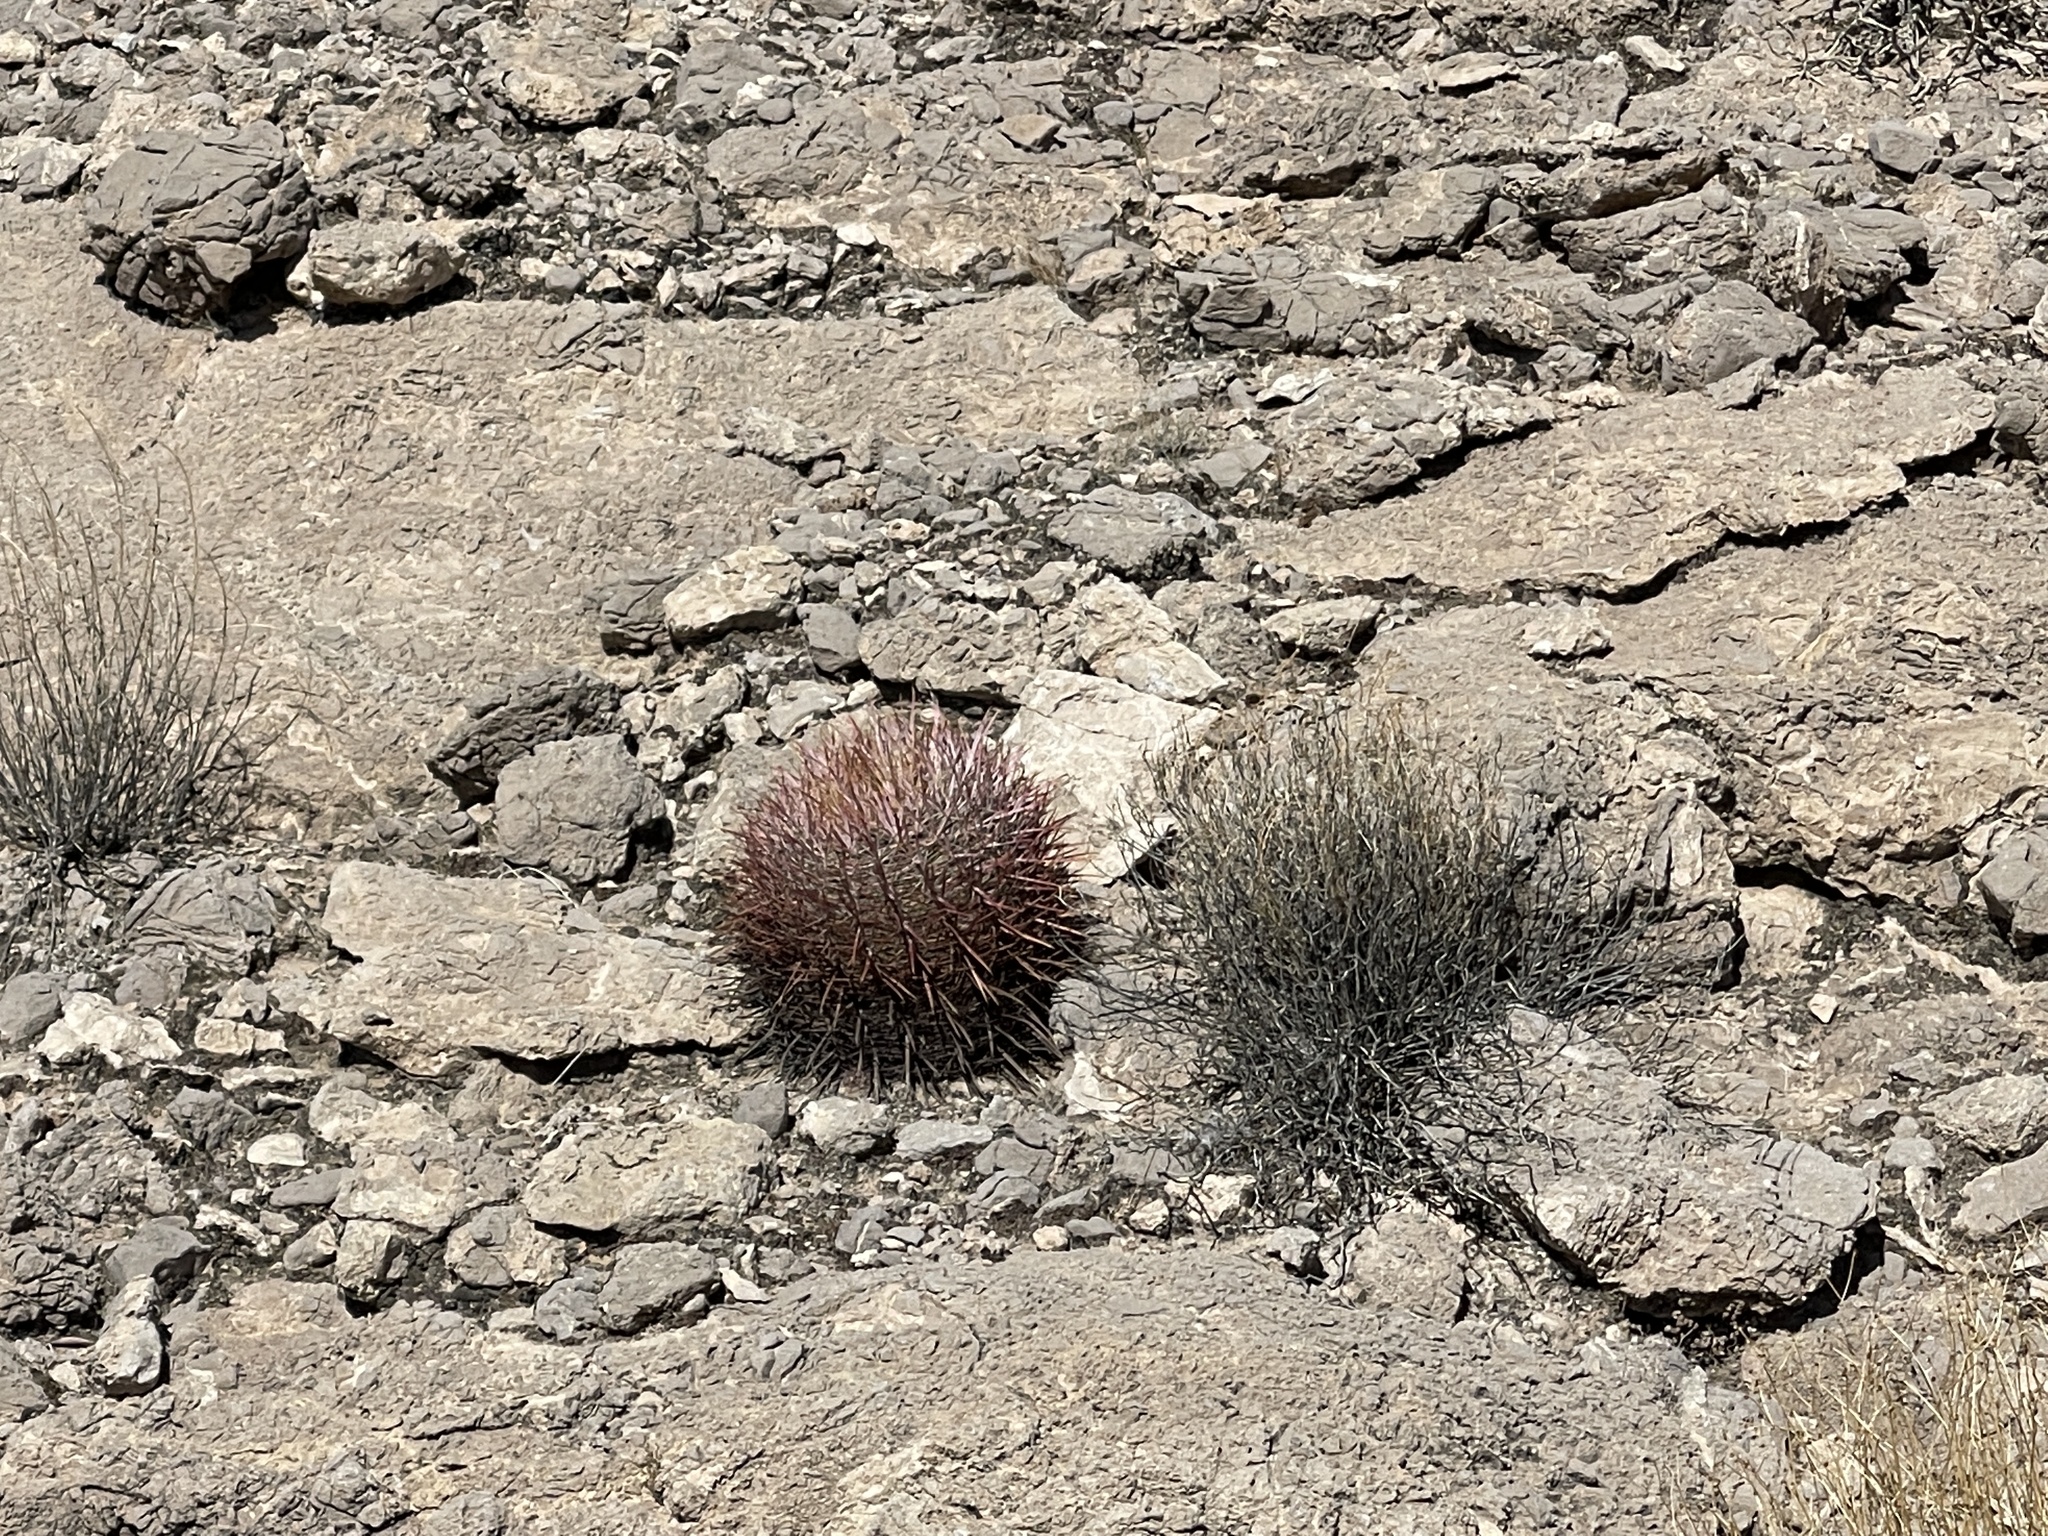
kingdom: Plantae
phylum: Tracheophyta
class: Magnoliopsida
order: Caryophyllales
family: Cactaceae
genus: Ferocactus
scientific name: Ferocactus cylindraceus
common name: California barrel cactus
